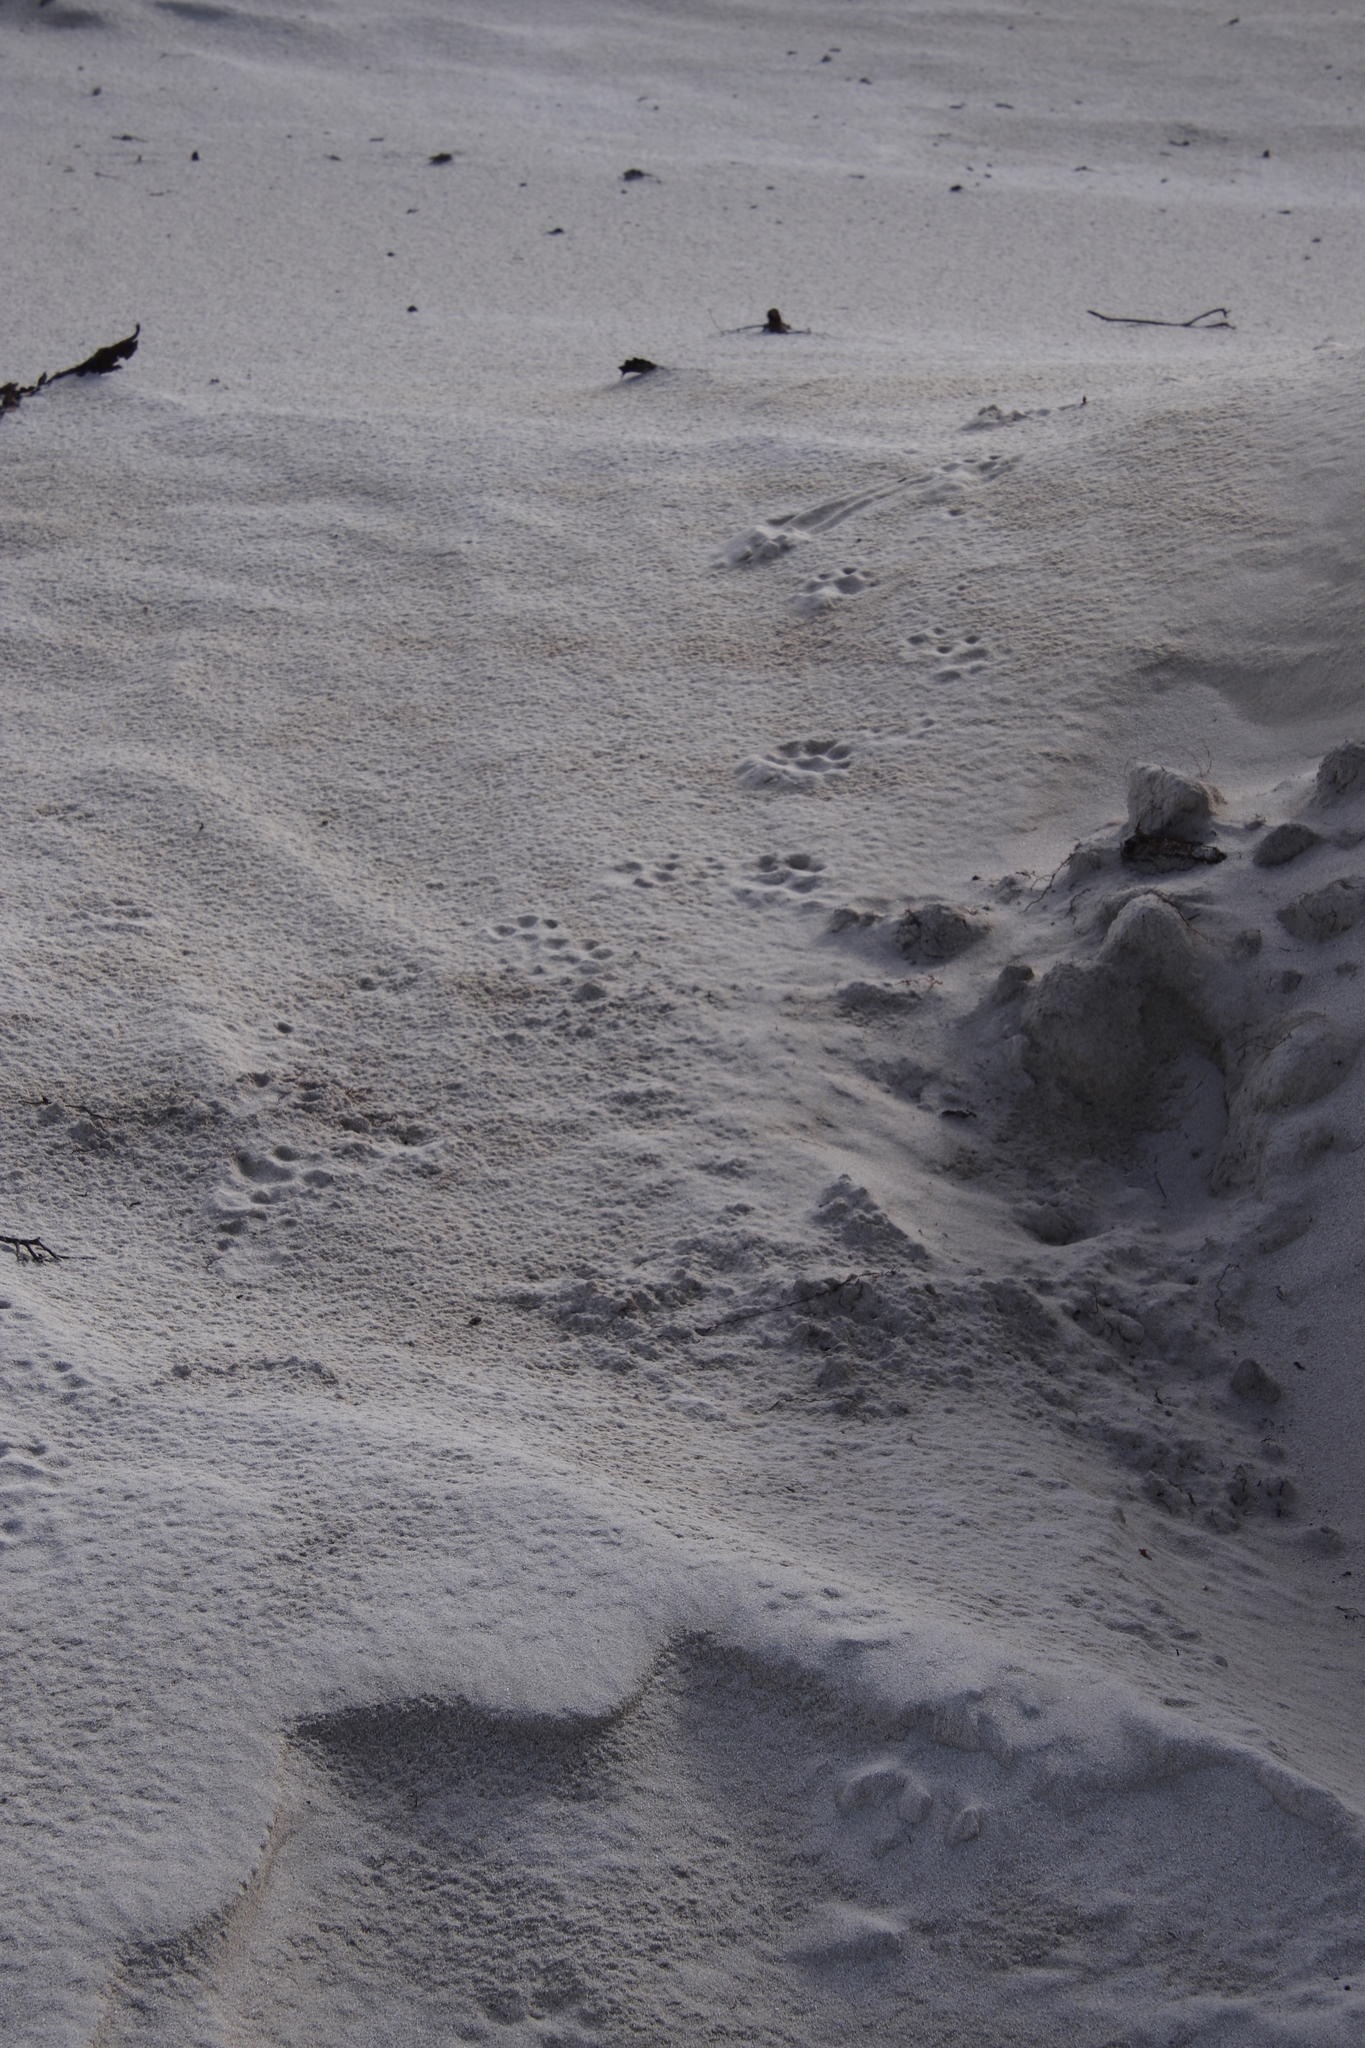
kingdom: Animalia
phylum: Chordata
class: Mammalia
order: Carnivora
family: Mustelidae
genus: Aonyx
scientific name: Aonyx capensis
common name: African clawless otter
